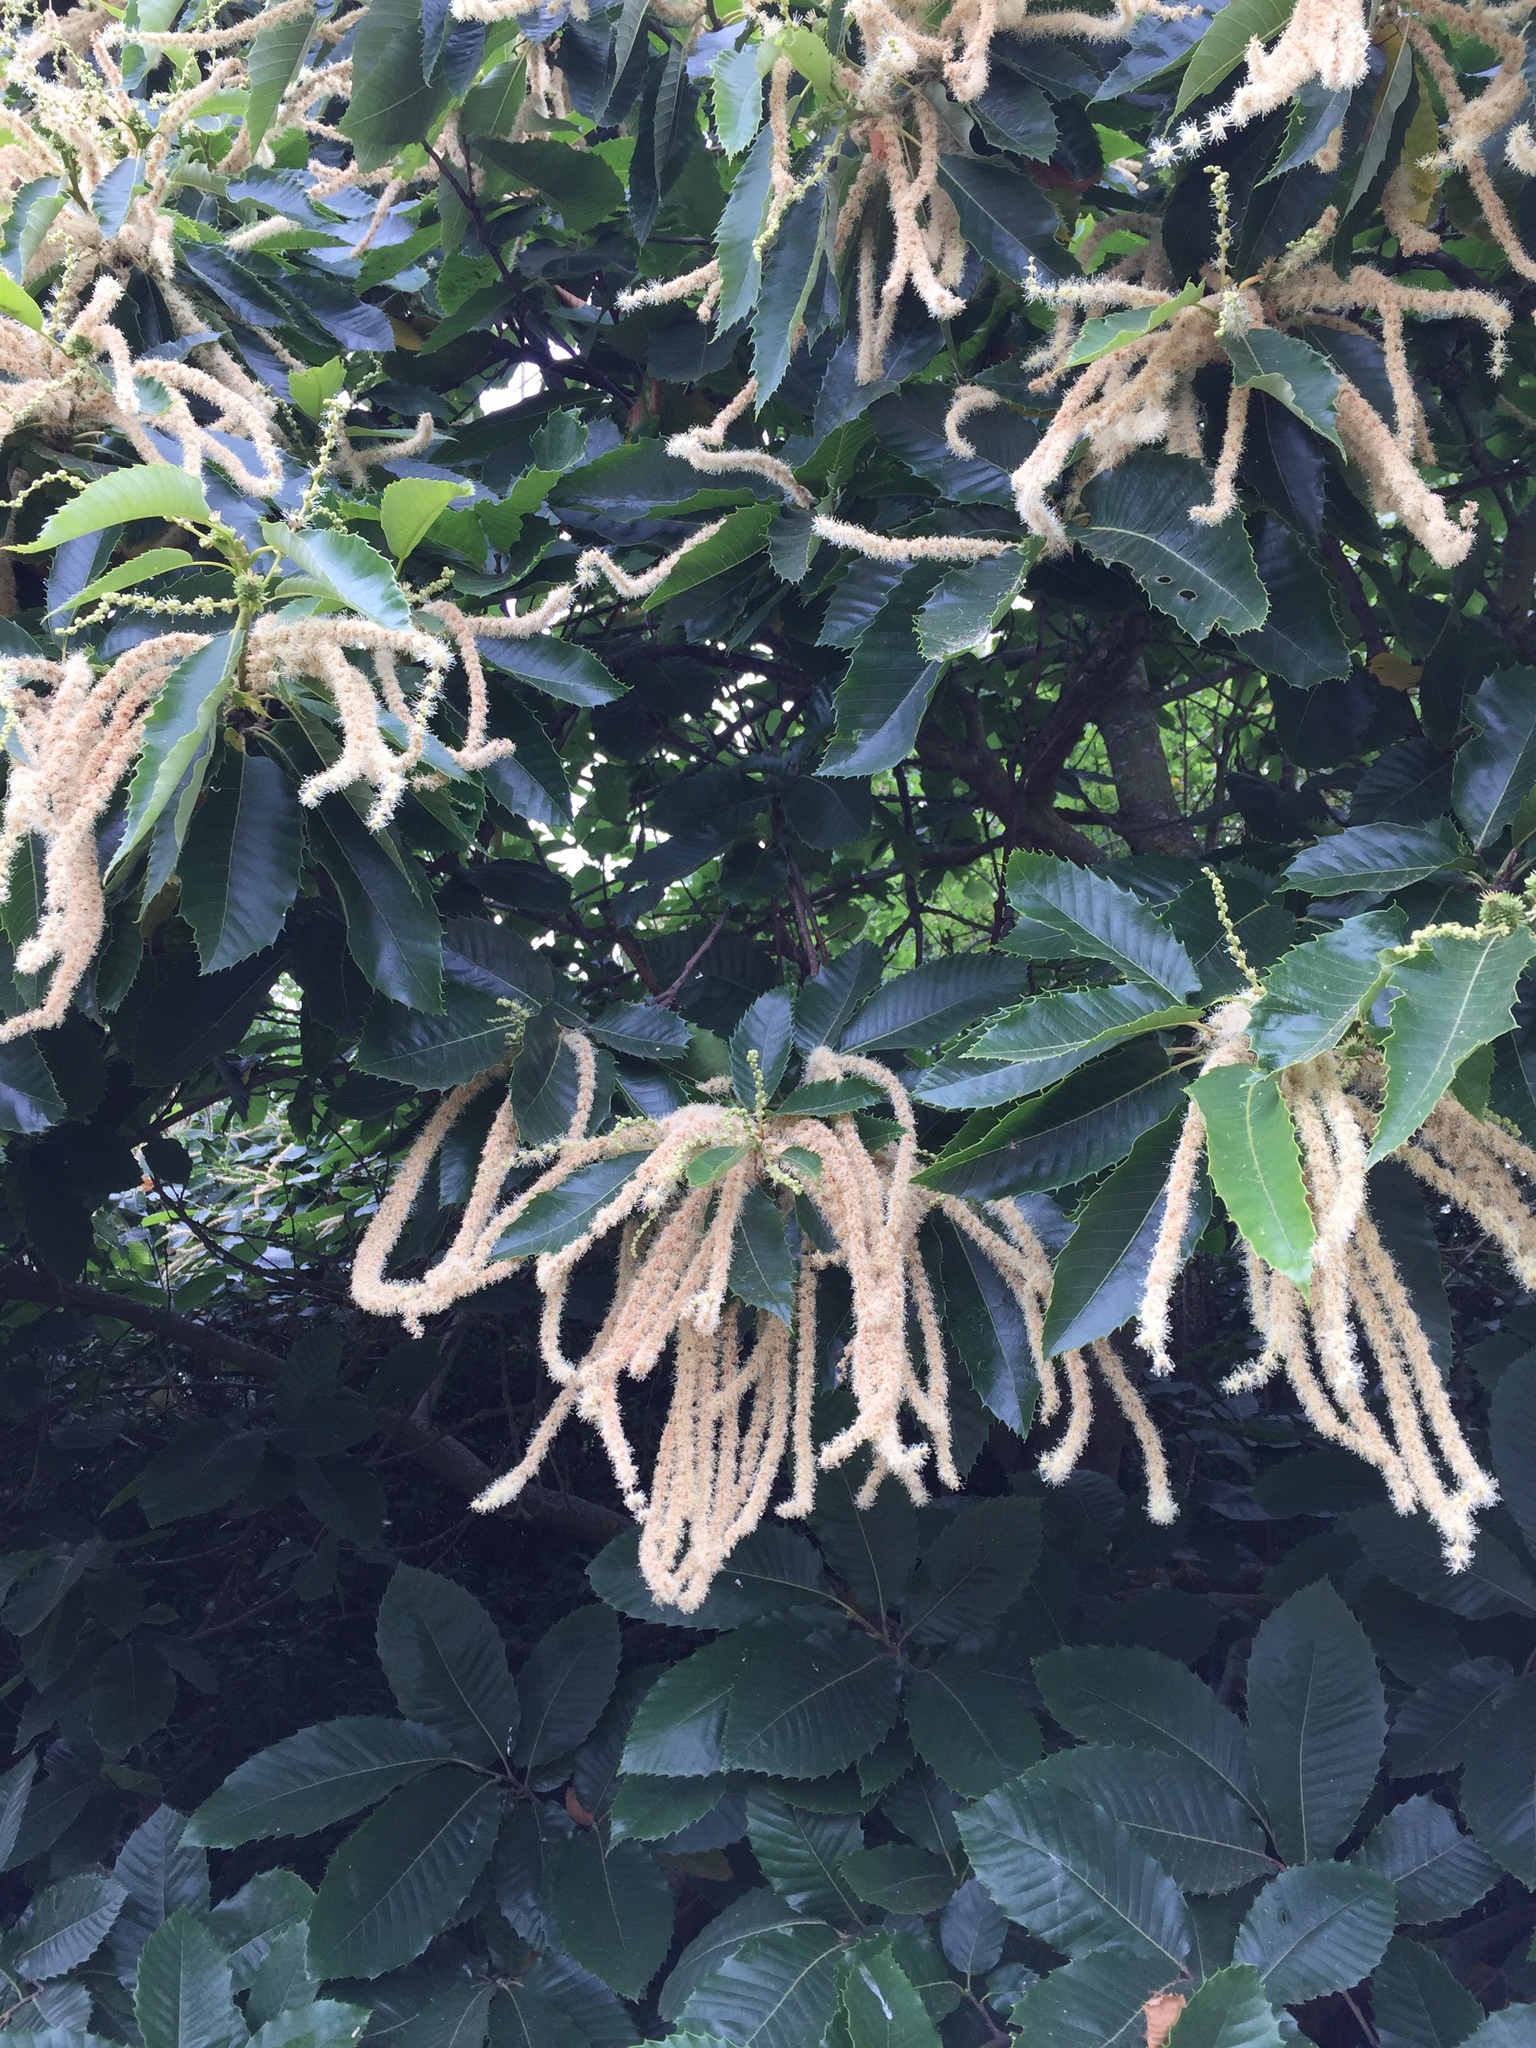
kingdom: Plantae
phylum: Tracheophyta
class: Magnoliopsida
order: Fagales
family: Fagaceae
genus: Castanea
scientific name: Castanea sativa
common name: Sweet chestnut
